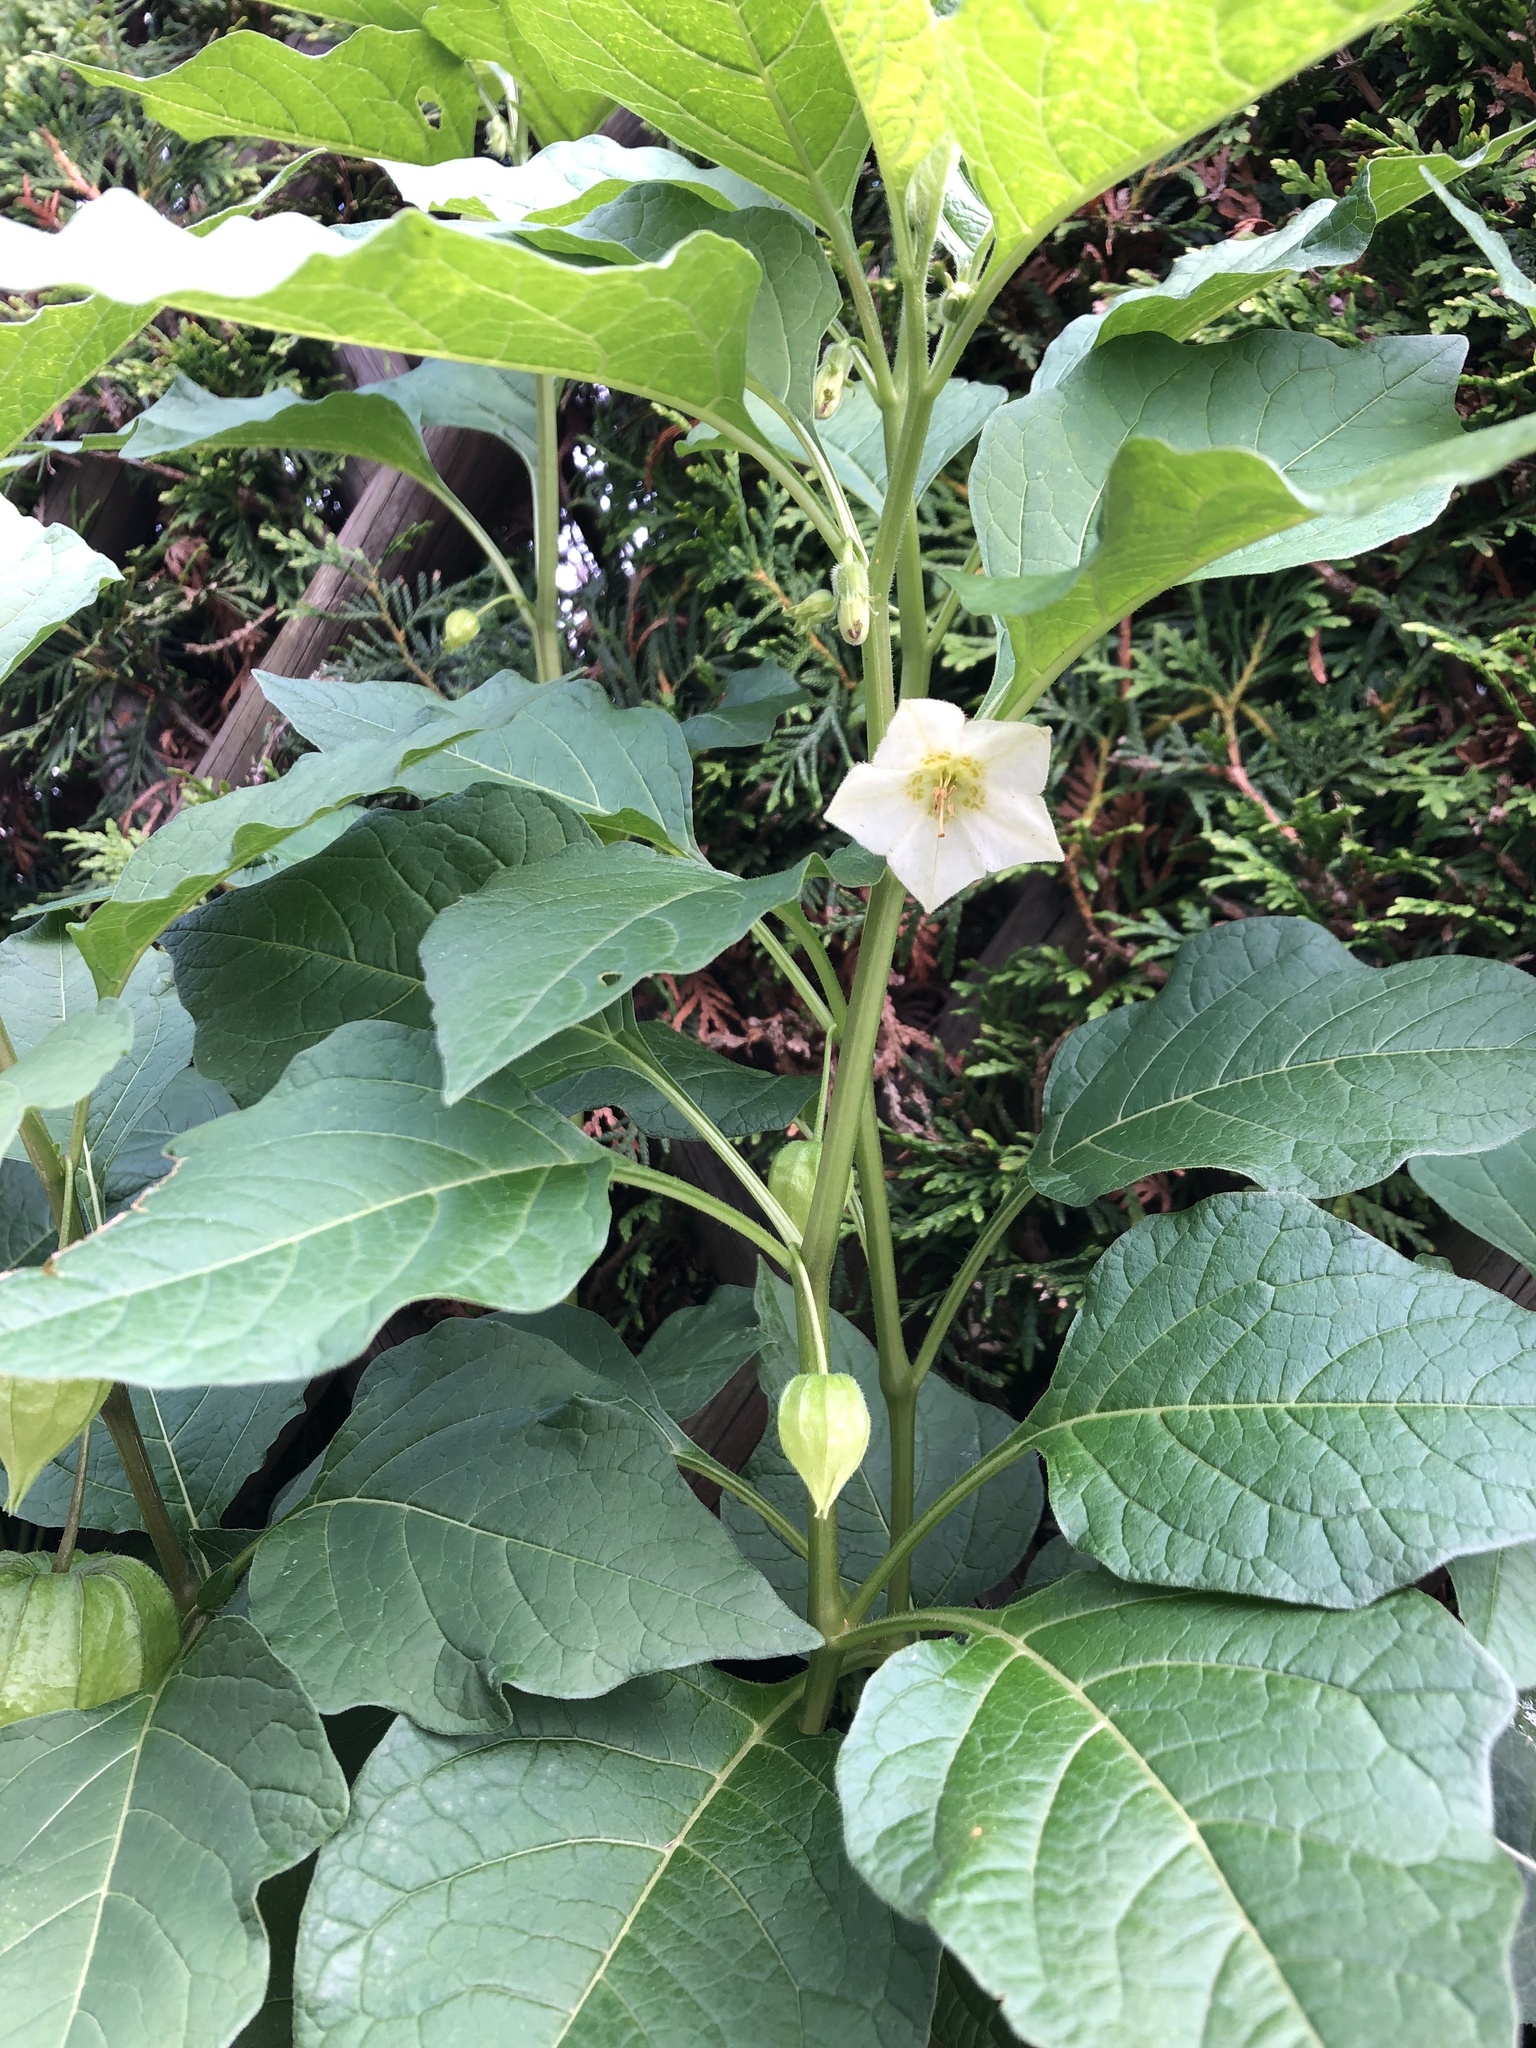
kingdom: Plantae
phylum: Tracheophyta
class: Magnoliopsida
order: Solanales
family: Solanaceae
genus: Alkekengi
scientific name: Alkekengi officinarum
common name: Japanese-lantern
